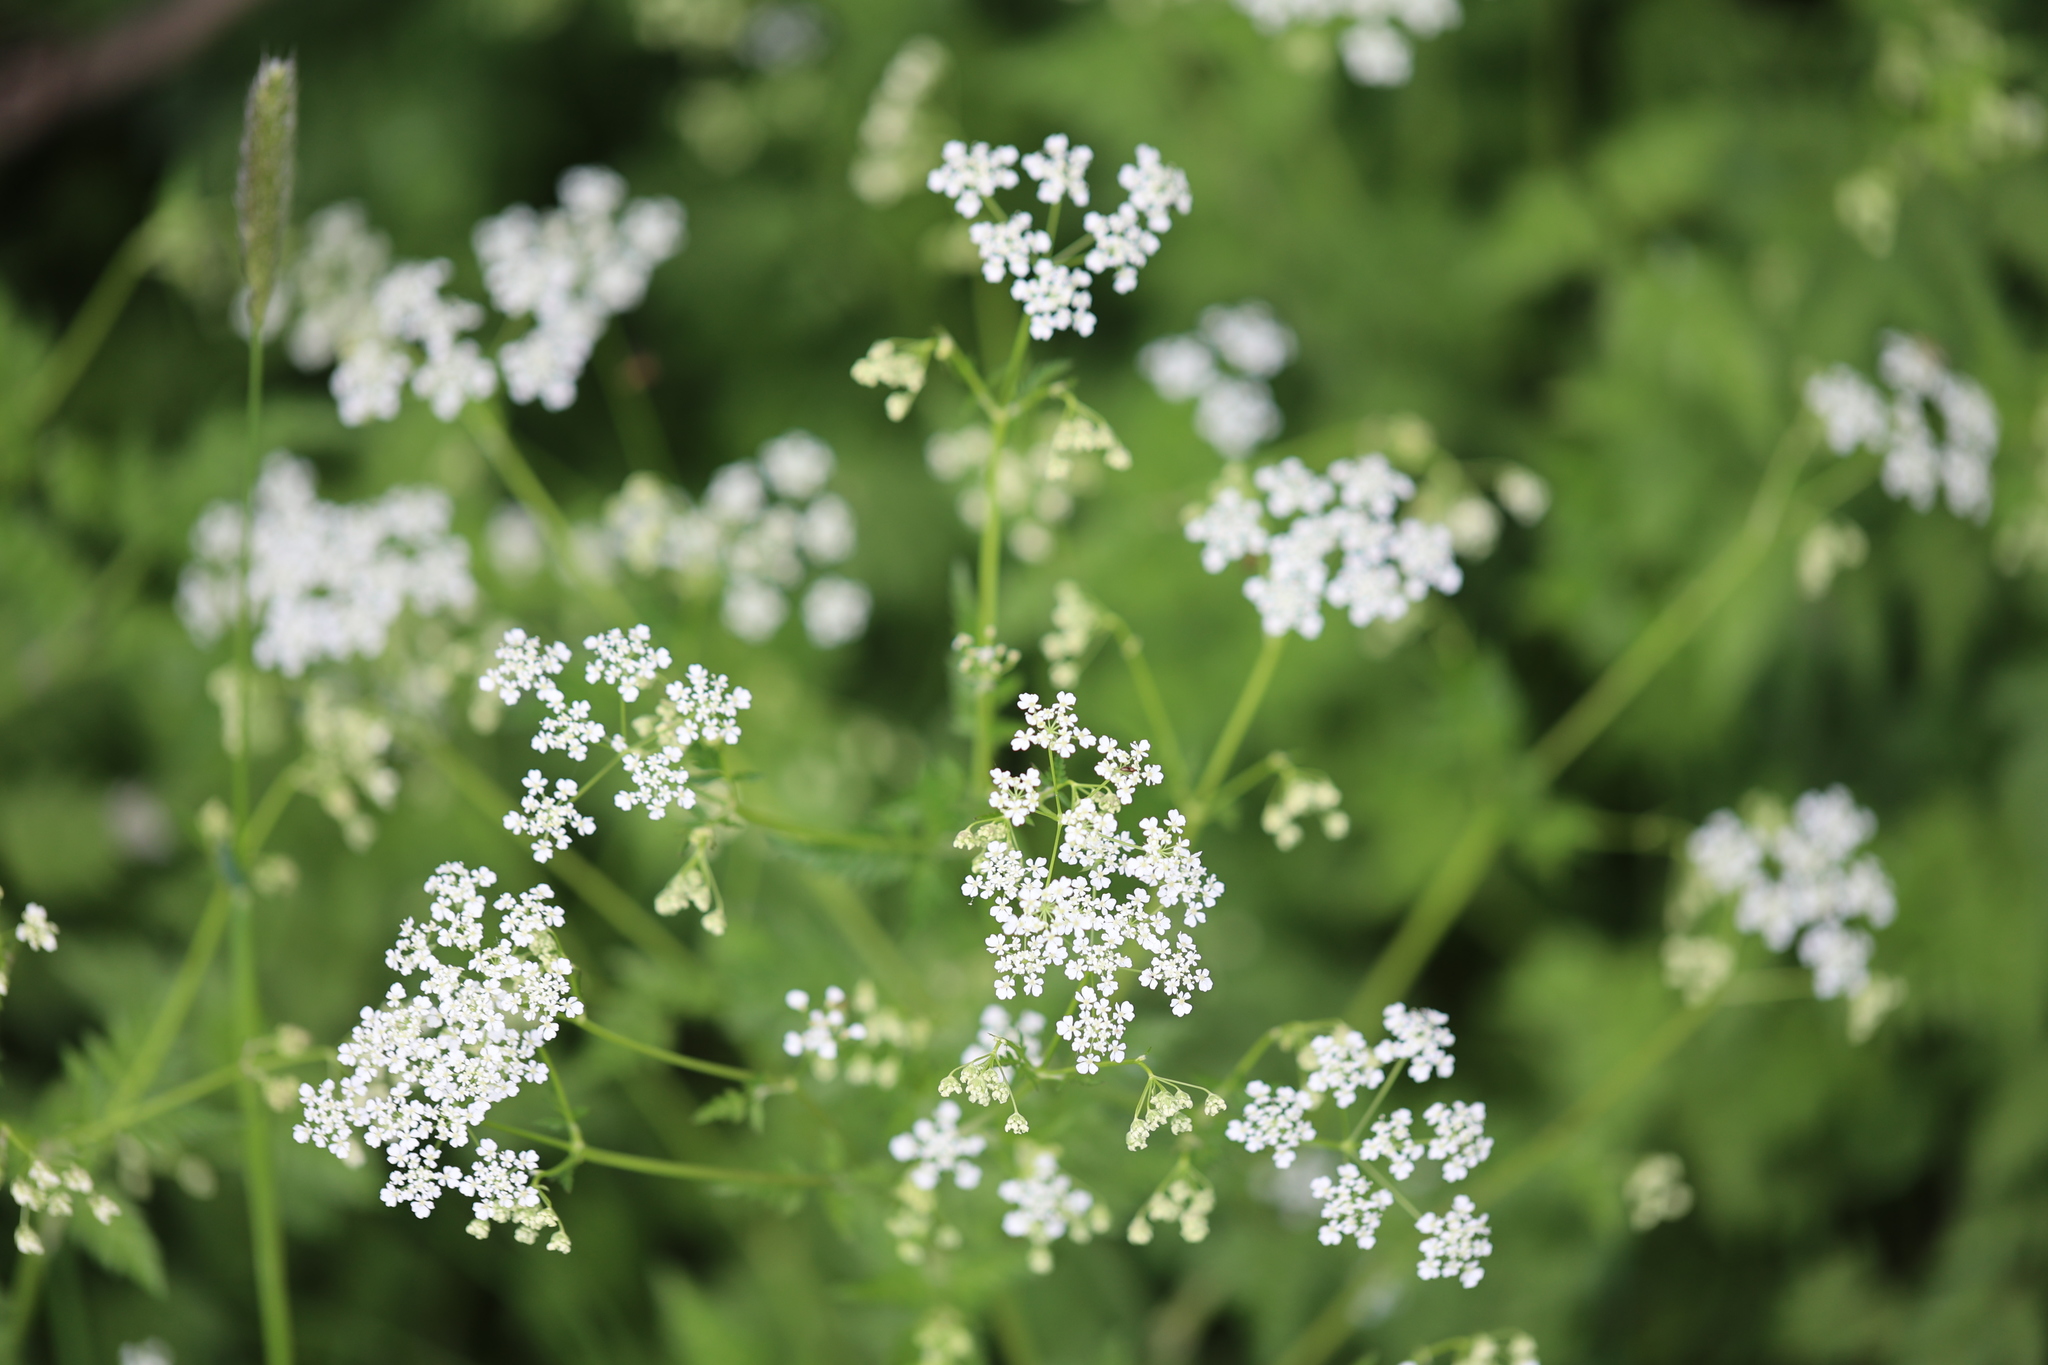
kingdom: Plantae
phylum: Tracheophyta
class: Magnoliopsida
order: Apiales
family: Apiaceae
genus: Anthriscus
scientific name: Anthriscus sylvestris
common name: Cow parsley
